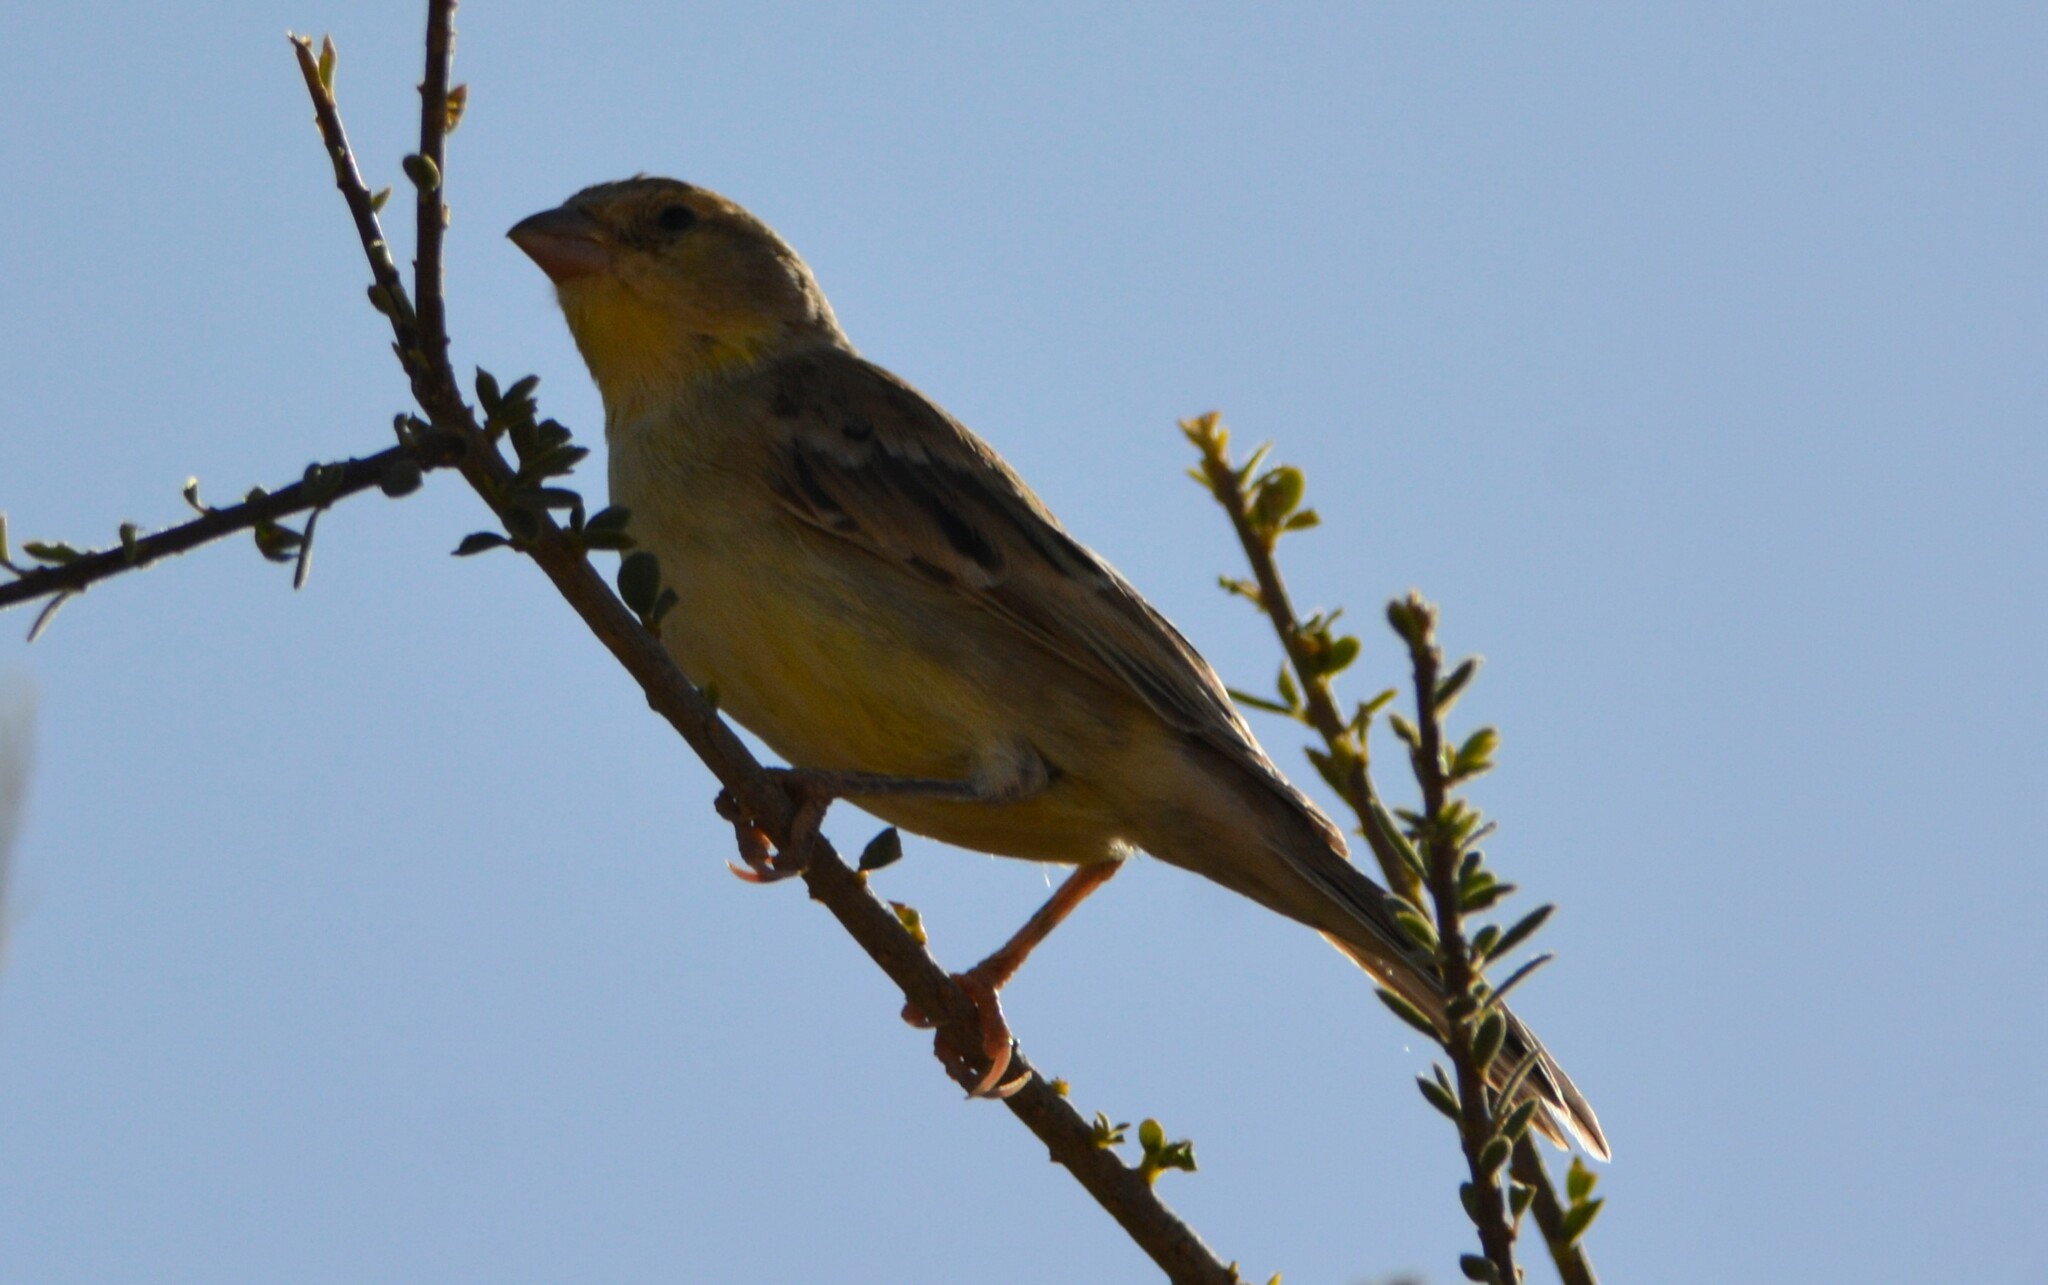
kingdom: Animalia
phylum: Chordata
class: Aves
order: Passeriformes
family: Passeridae
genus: Passer
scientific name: Passer luteus
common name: Sudan golden sparrow
